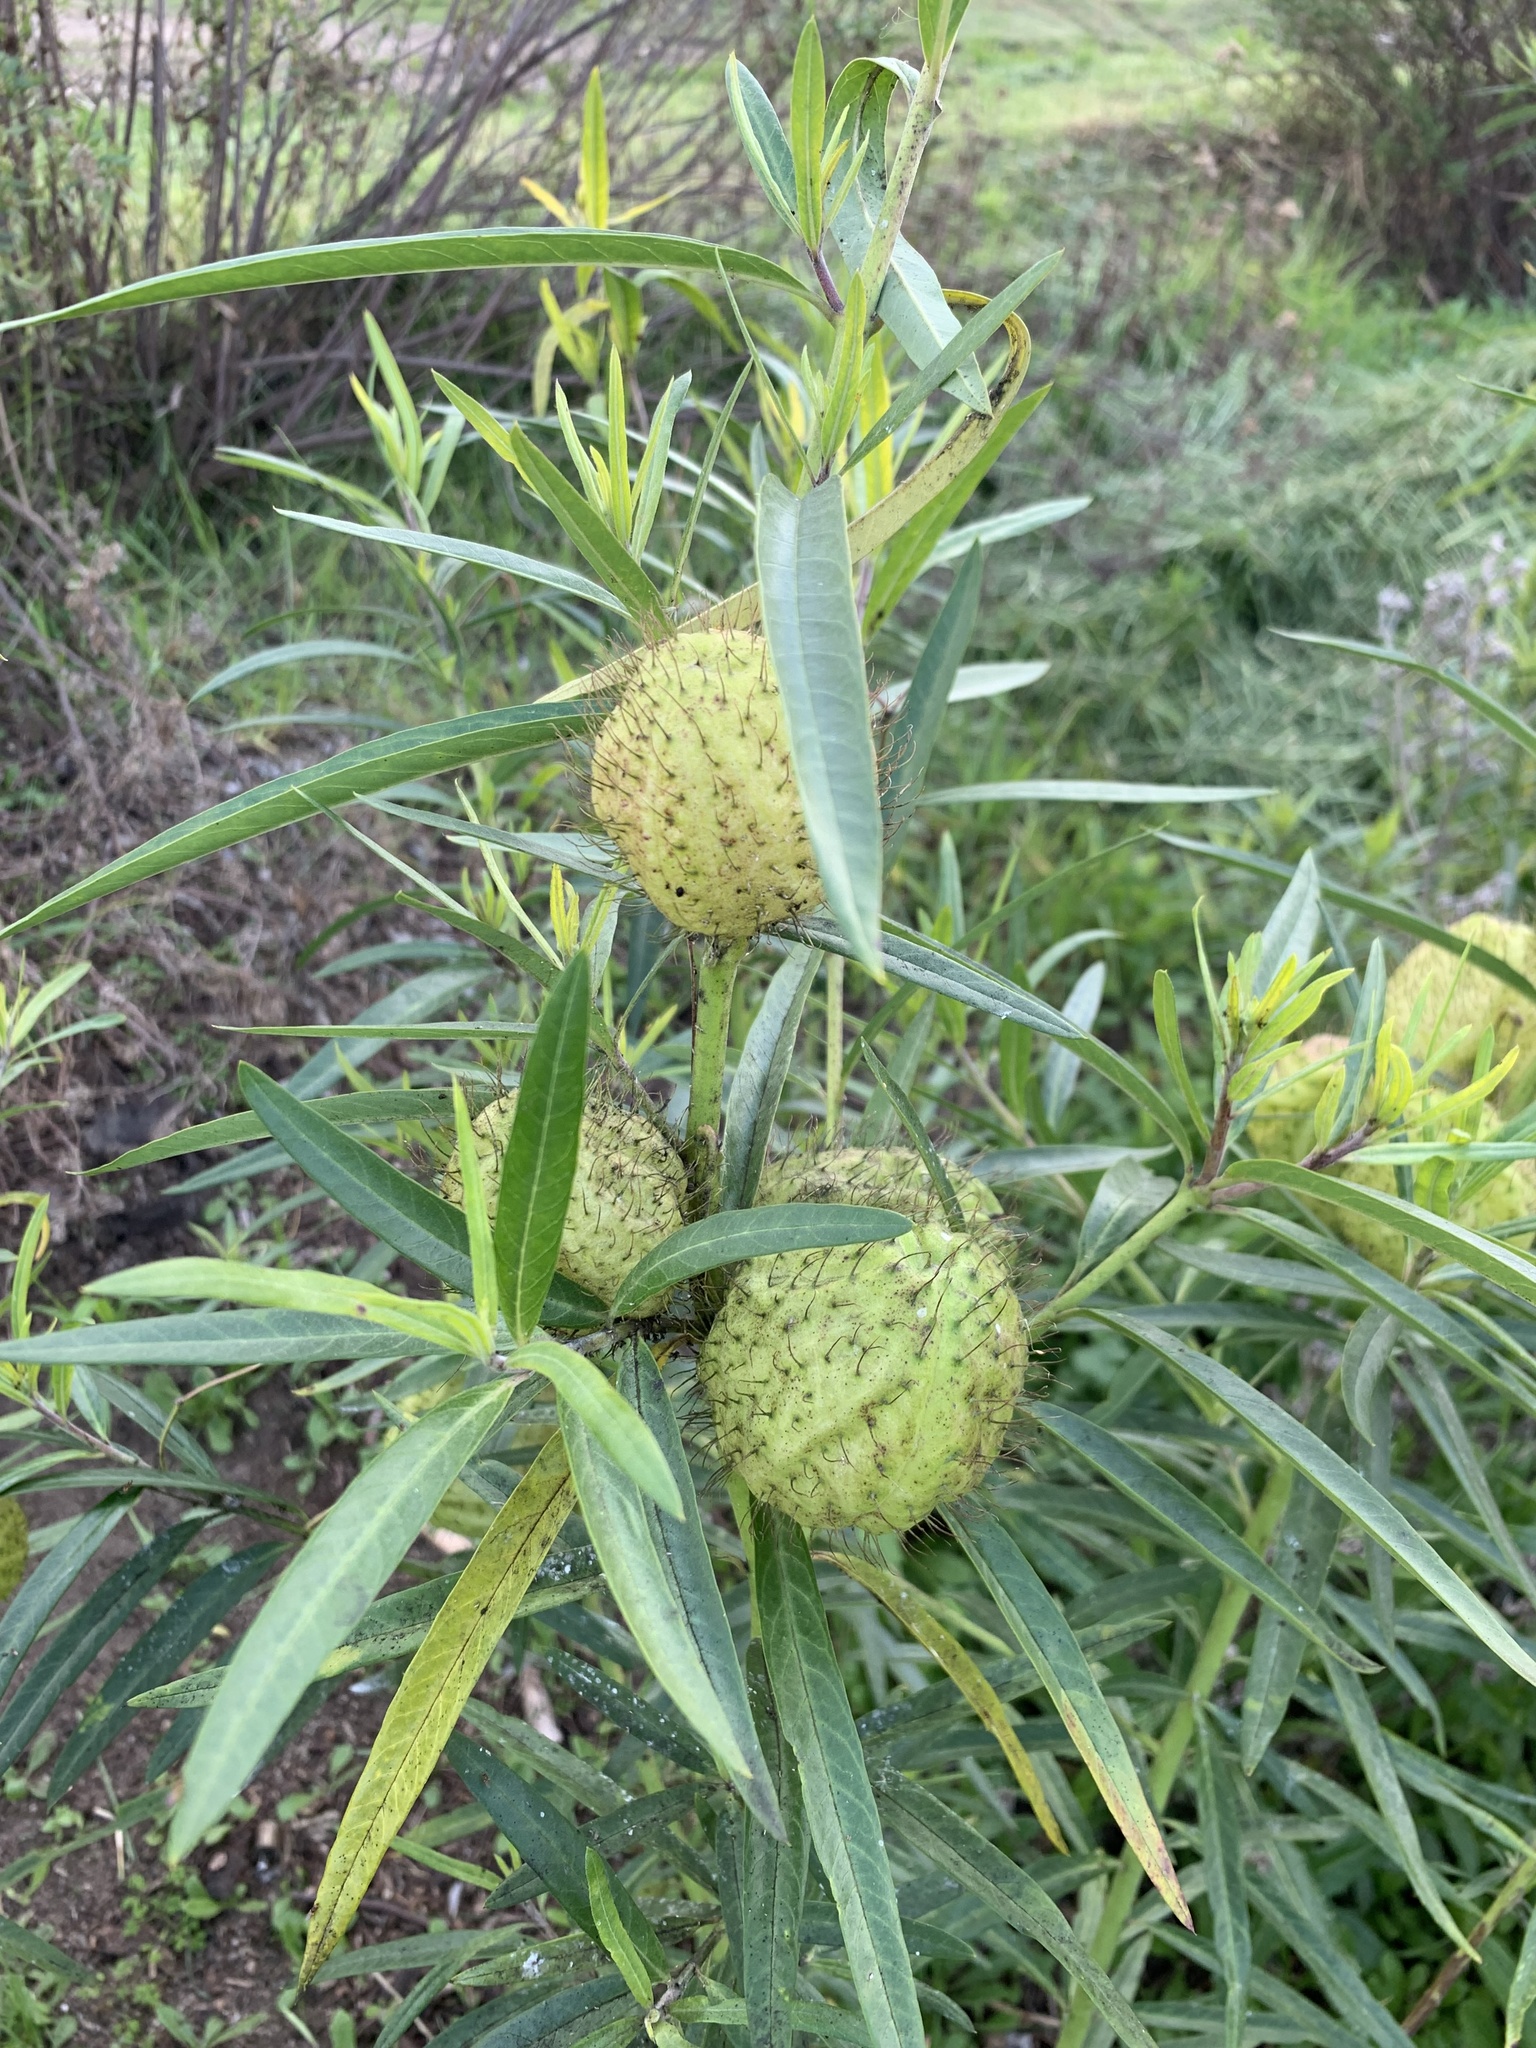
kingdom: Plantae
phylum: Tracheophyta
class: Magnoliopsida
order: Gentianales
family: Apocynaceae
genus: Gomphocarpus
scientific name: Gomphocarpus physocarpus
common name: Balloon cotton bush
